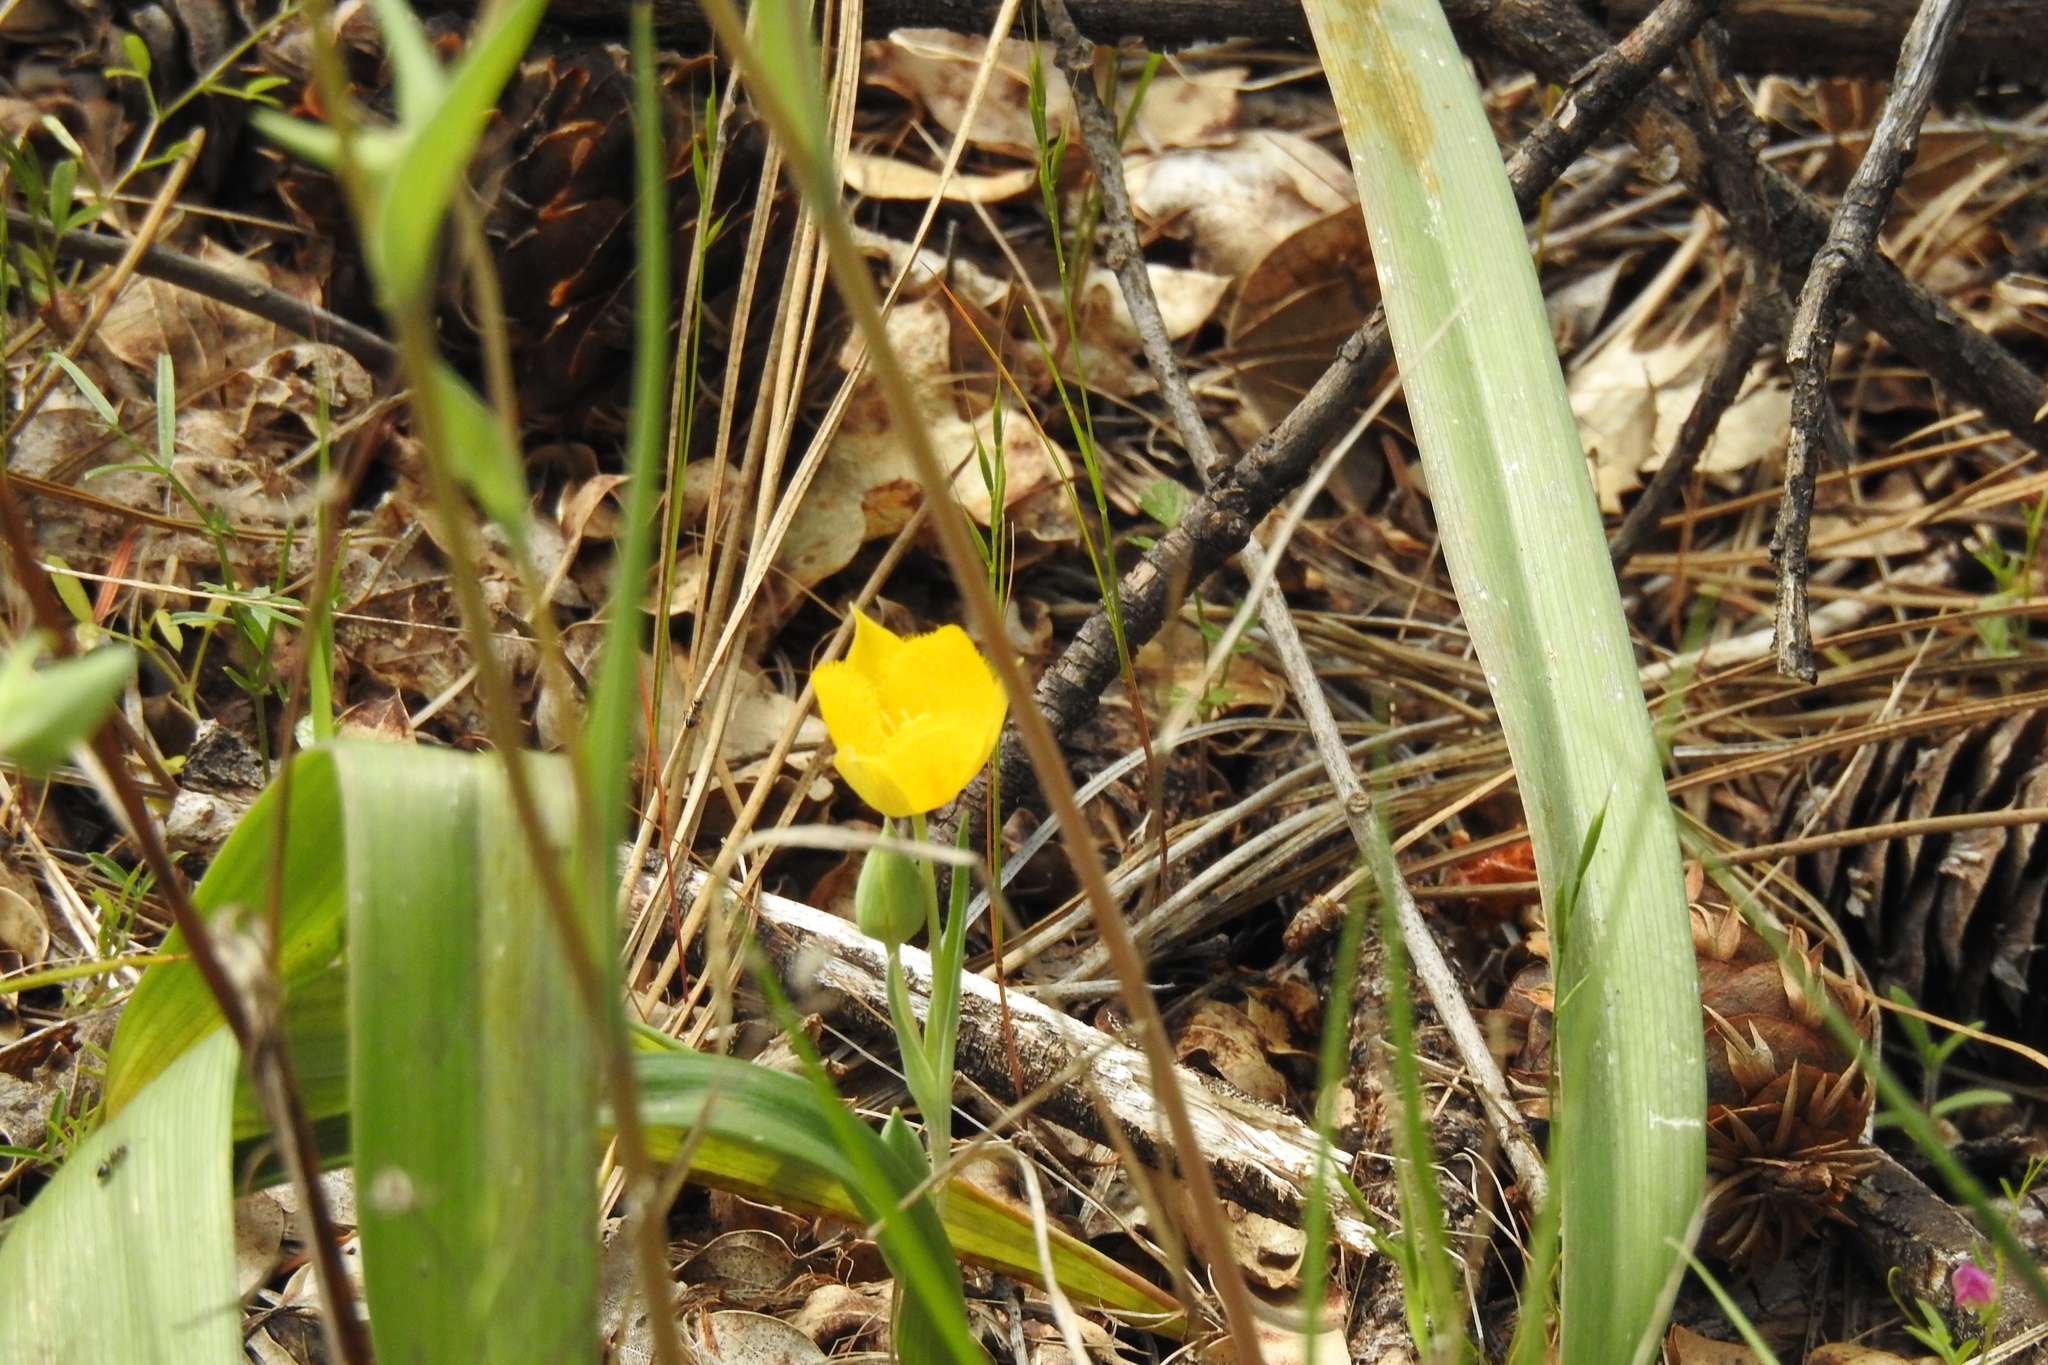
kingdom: Plantae
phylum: Tracheophyta
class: Liliopsida
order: Liliales
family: Liliaceae
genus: Calochortus
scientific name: Calochortus monophyllus
